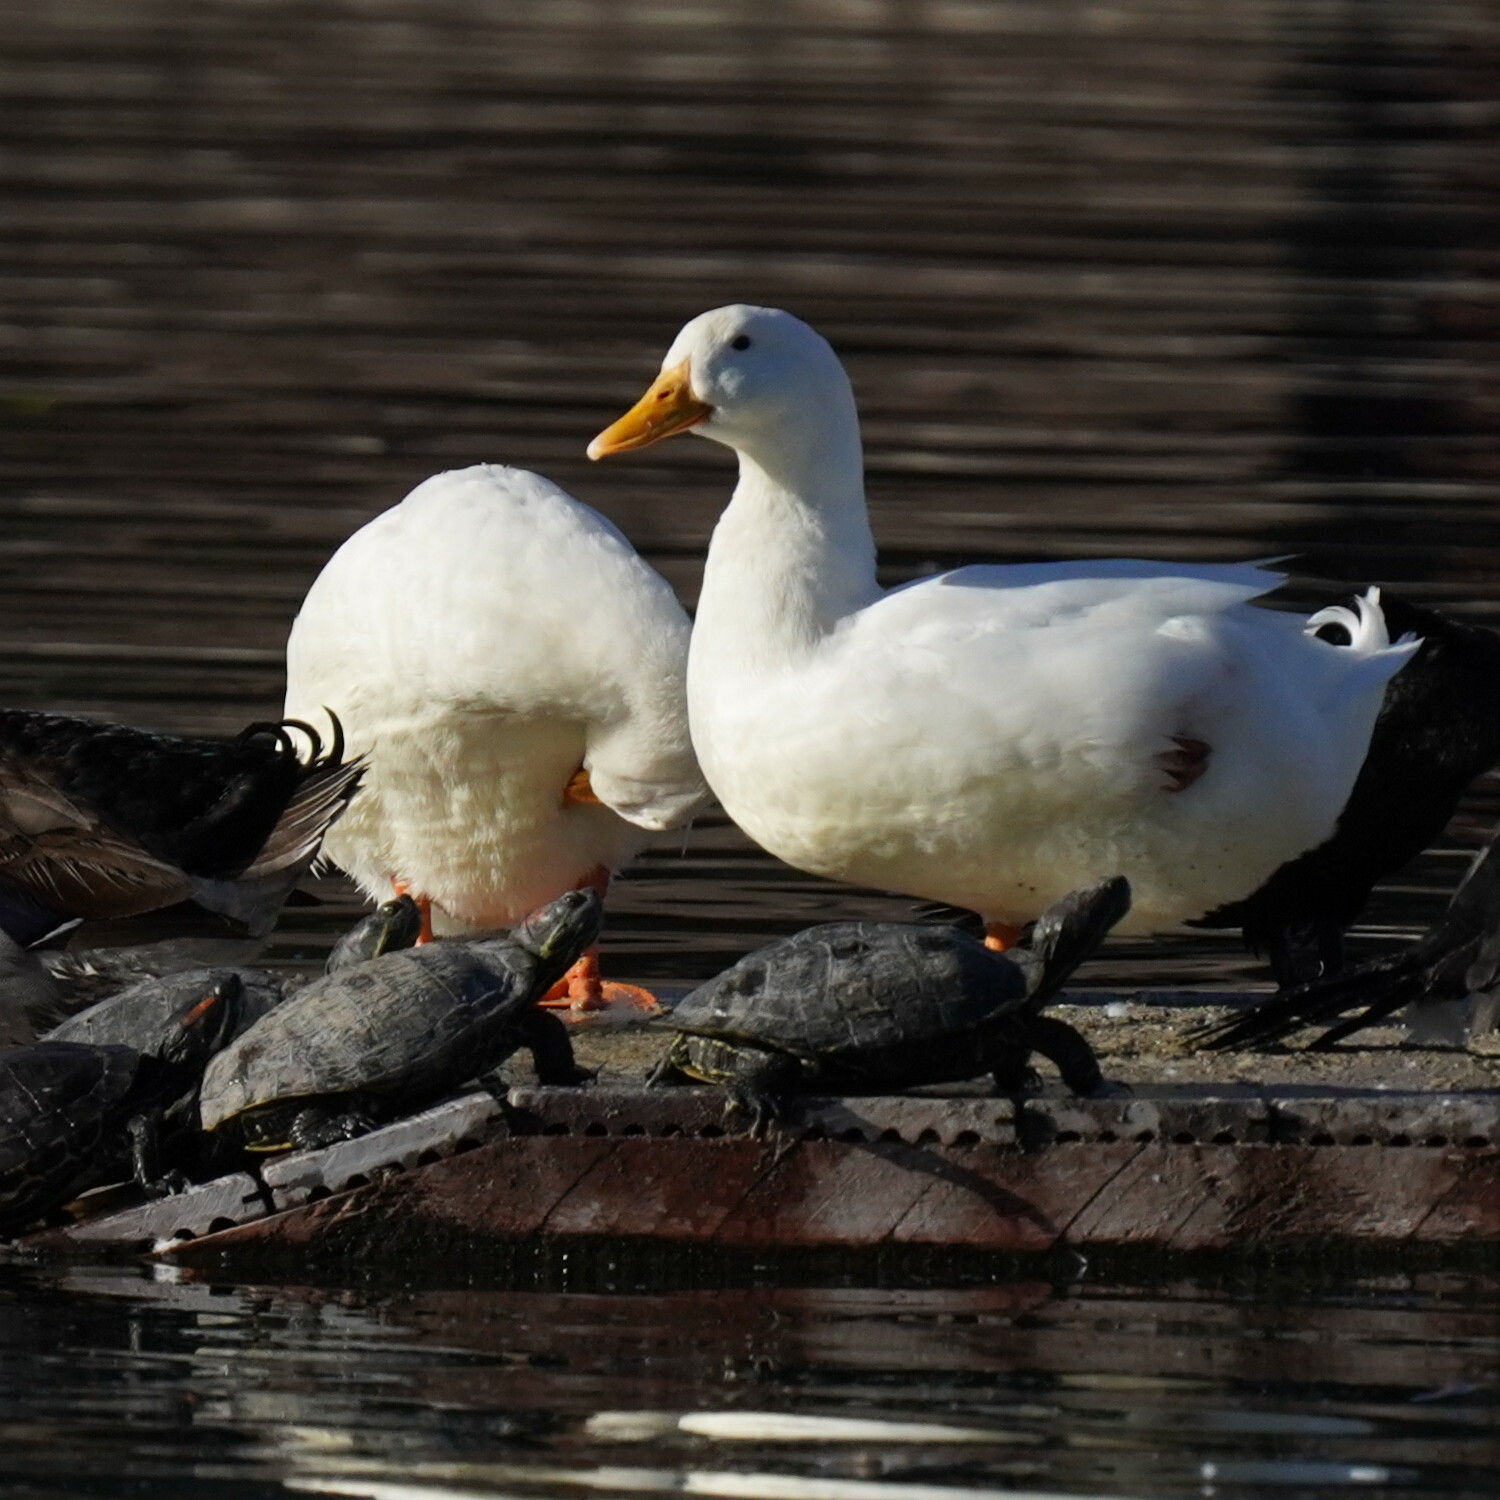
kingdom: Animalia
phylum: Chordata
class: Aves
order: Anseriformes
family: Anatidae
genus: Anas
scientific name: Anas platyrhynchos
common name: Mallard
